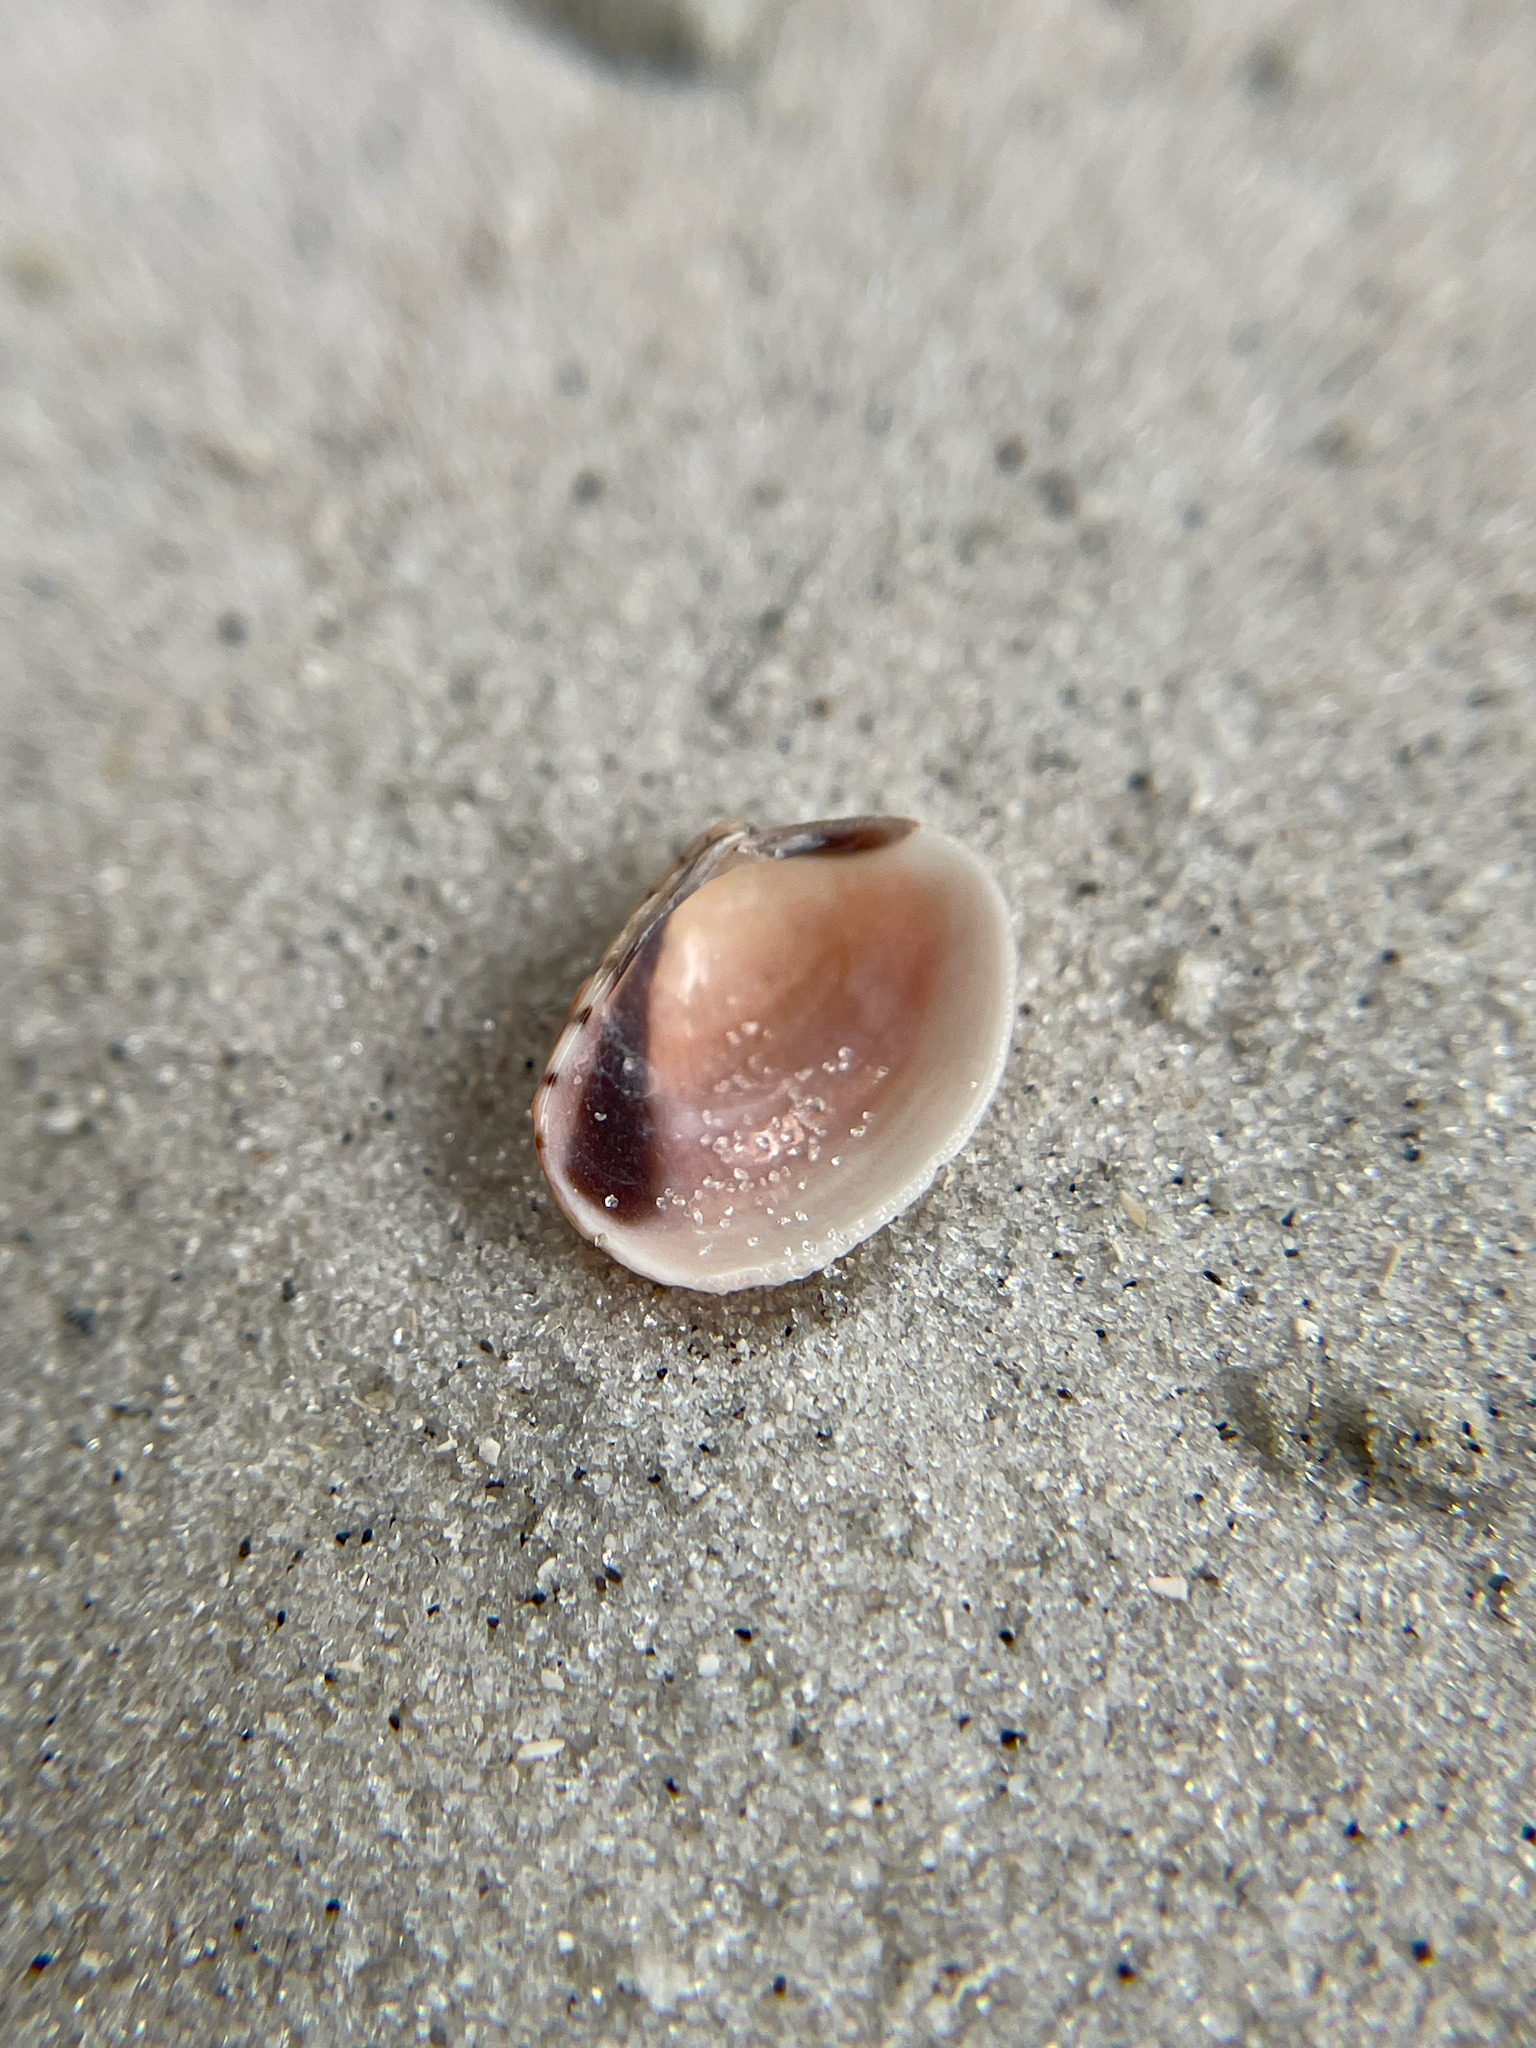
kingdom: Animalia
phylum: Mollusca
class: Bivalvia
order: Venerida
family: Veneridae
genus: Chioneryx
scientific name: Chioneryx grus
